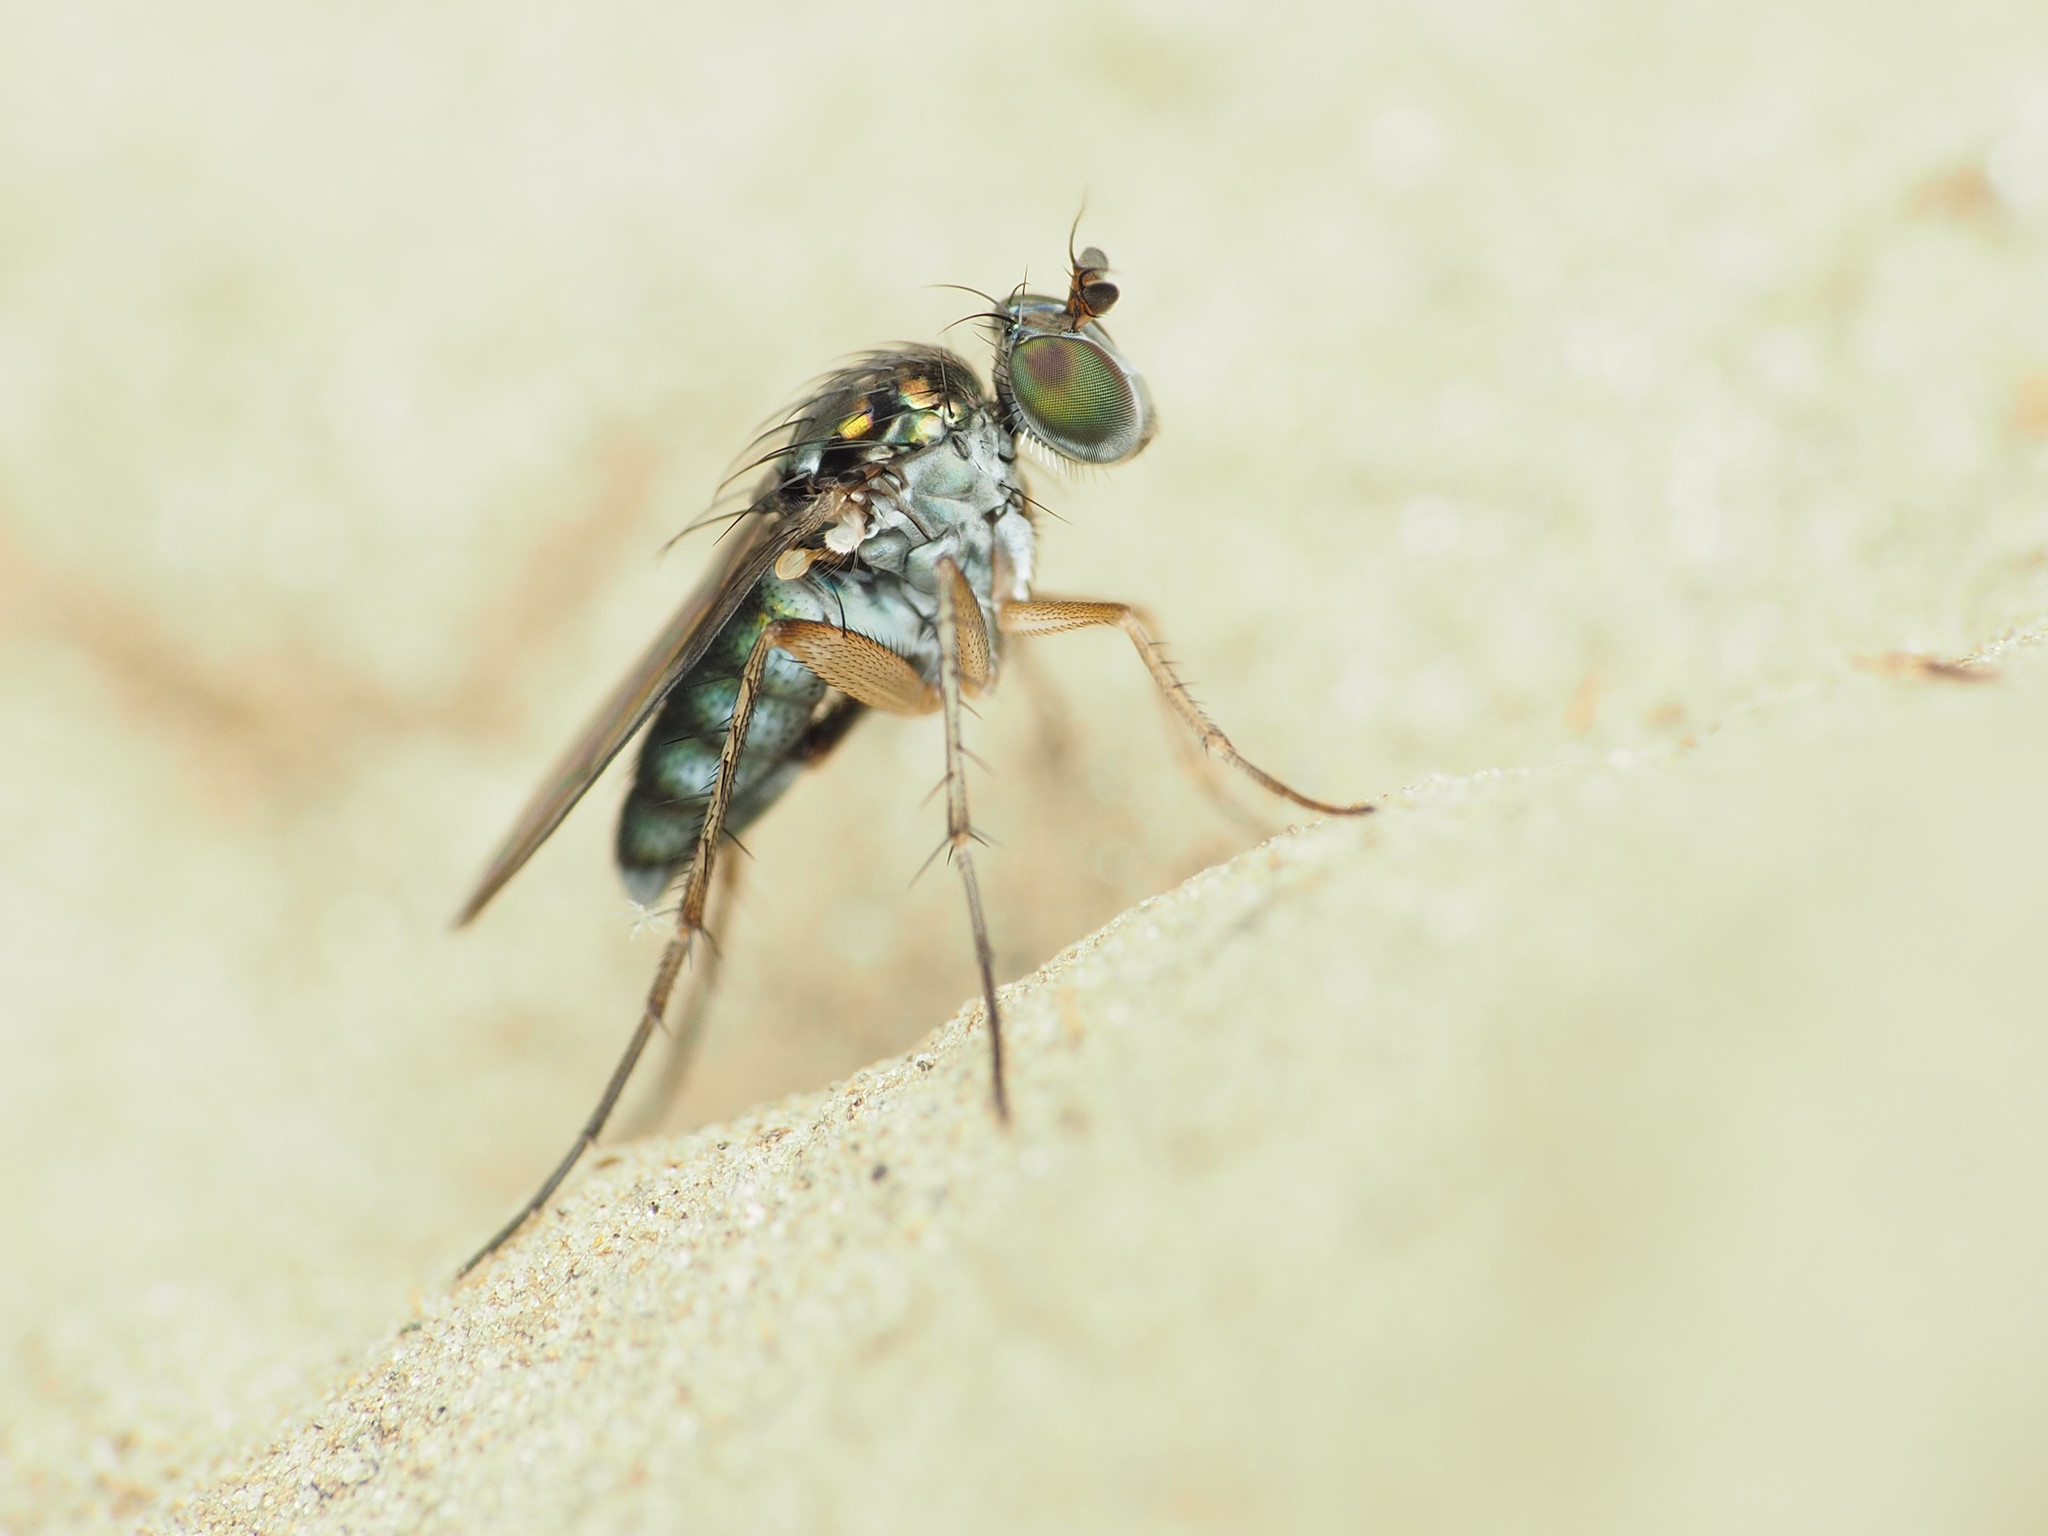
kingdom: Animalia
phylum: Arthropoda
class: Insecta
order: Diptera
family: Dolichopodidae
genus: Pelastoneurus
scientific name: Pelastoneurus vagans
